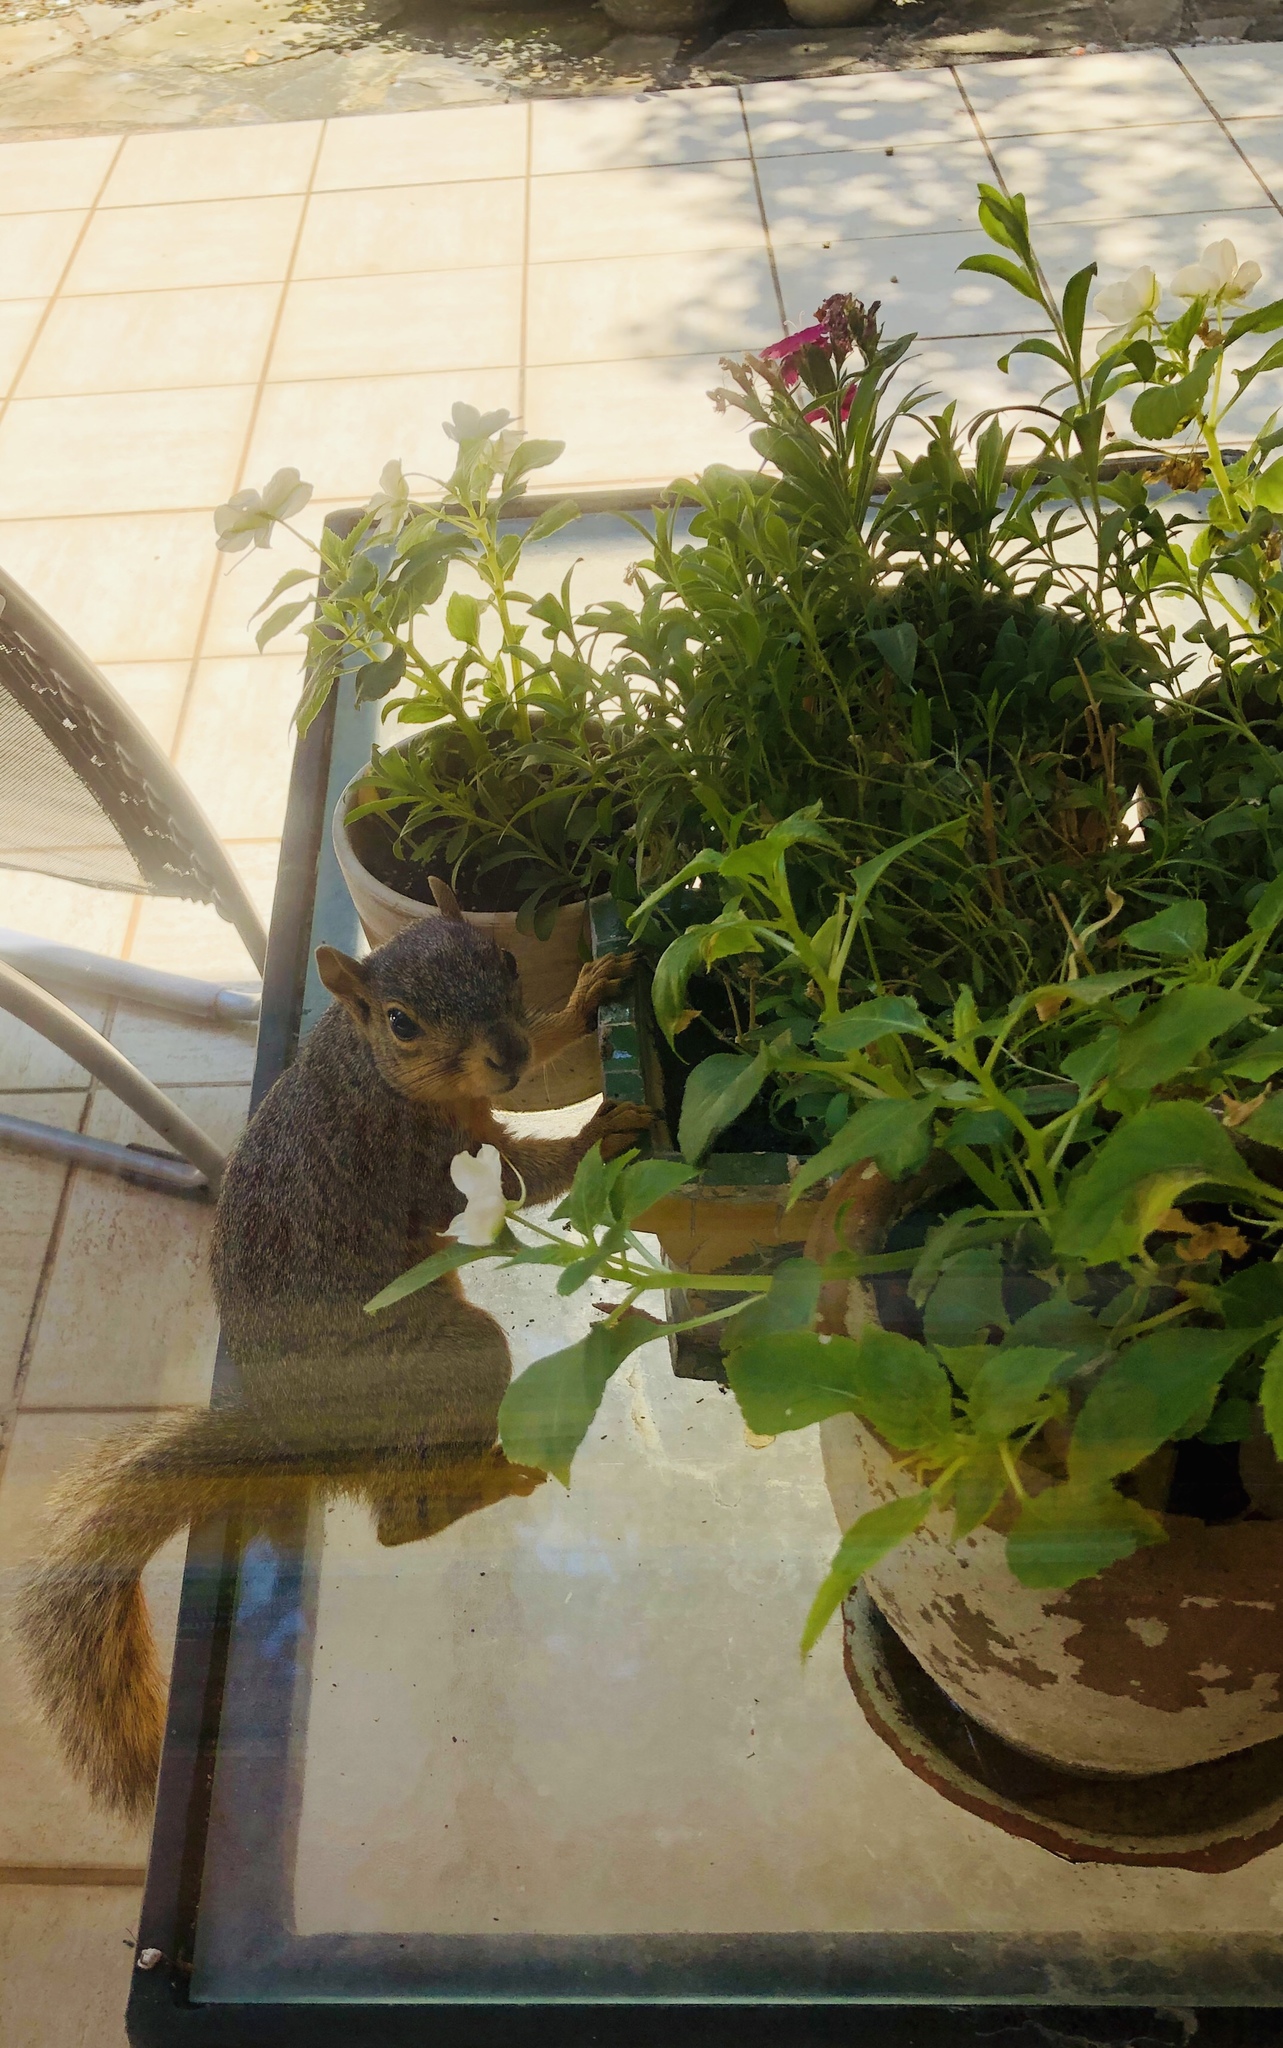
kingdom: Animalia
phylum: Chordata
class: Mammalia
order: Rodentia
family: Sciuridae
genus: Sciurus
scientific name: Sciurus niger
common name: Fox squirrel
